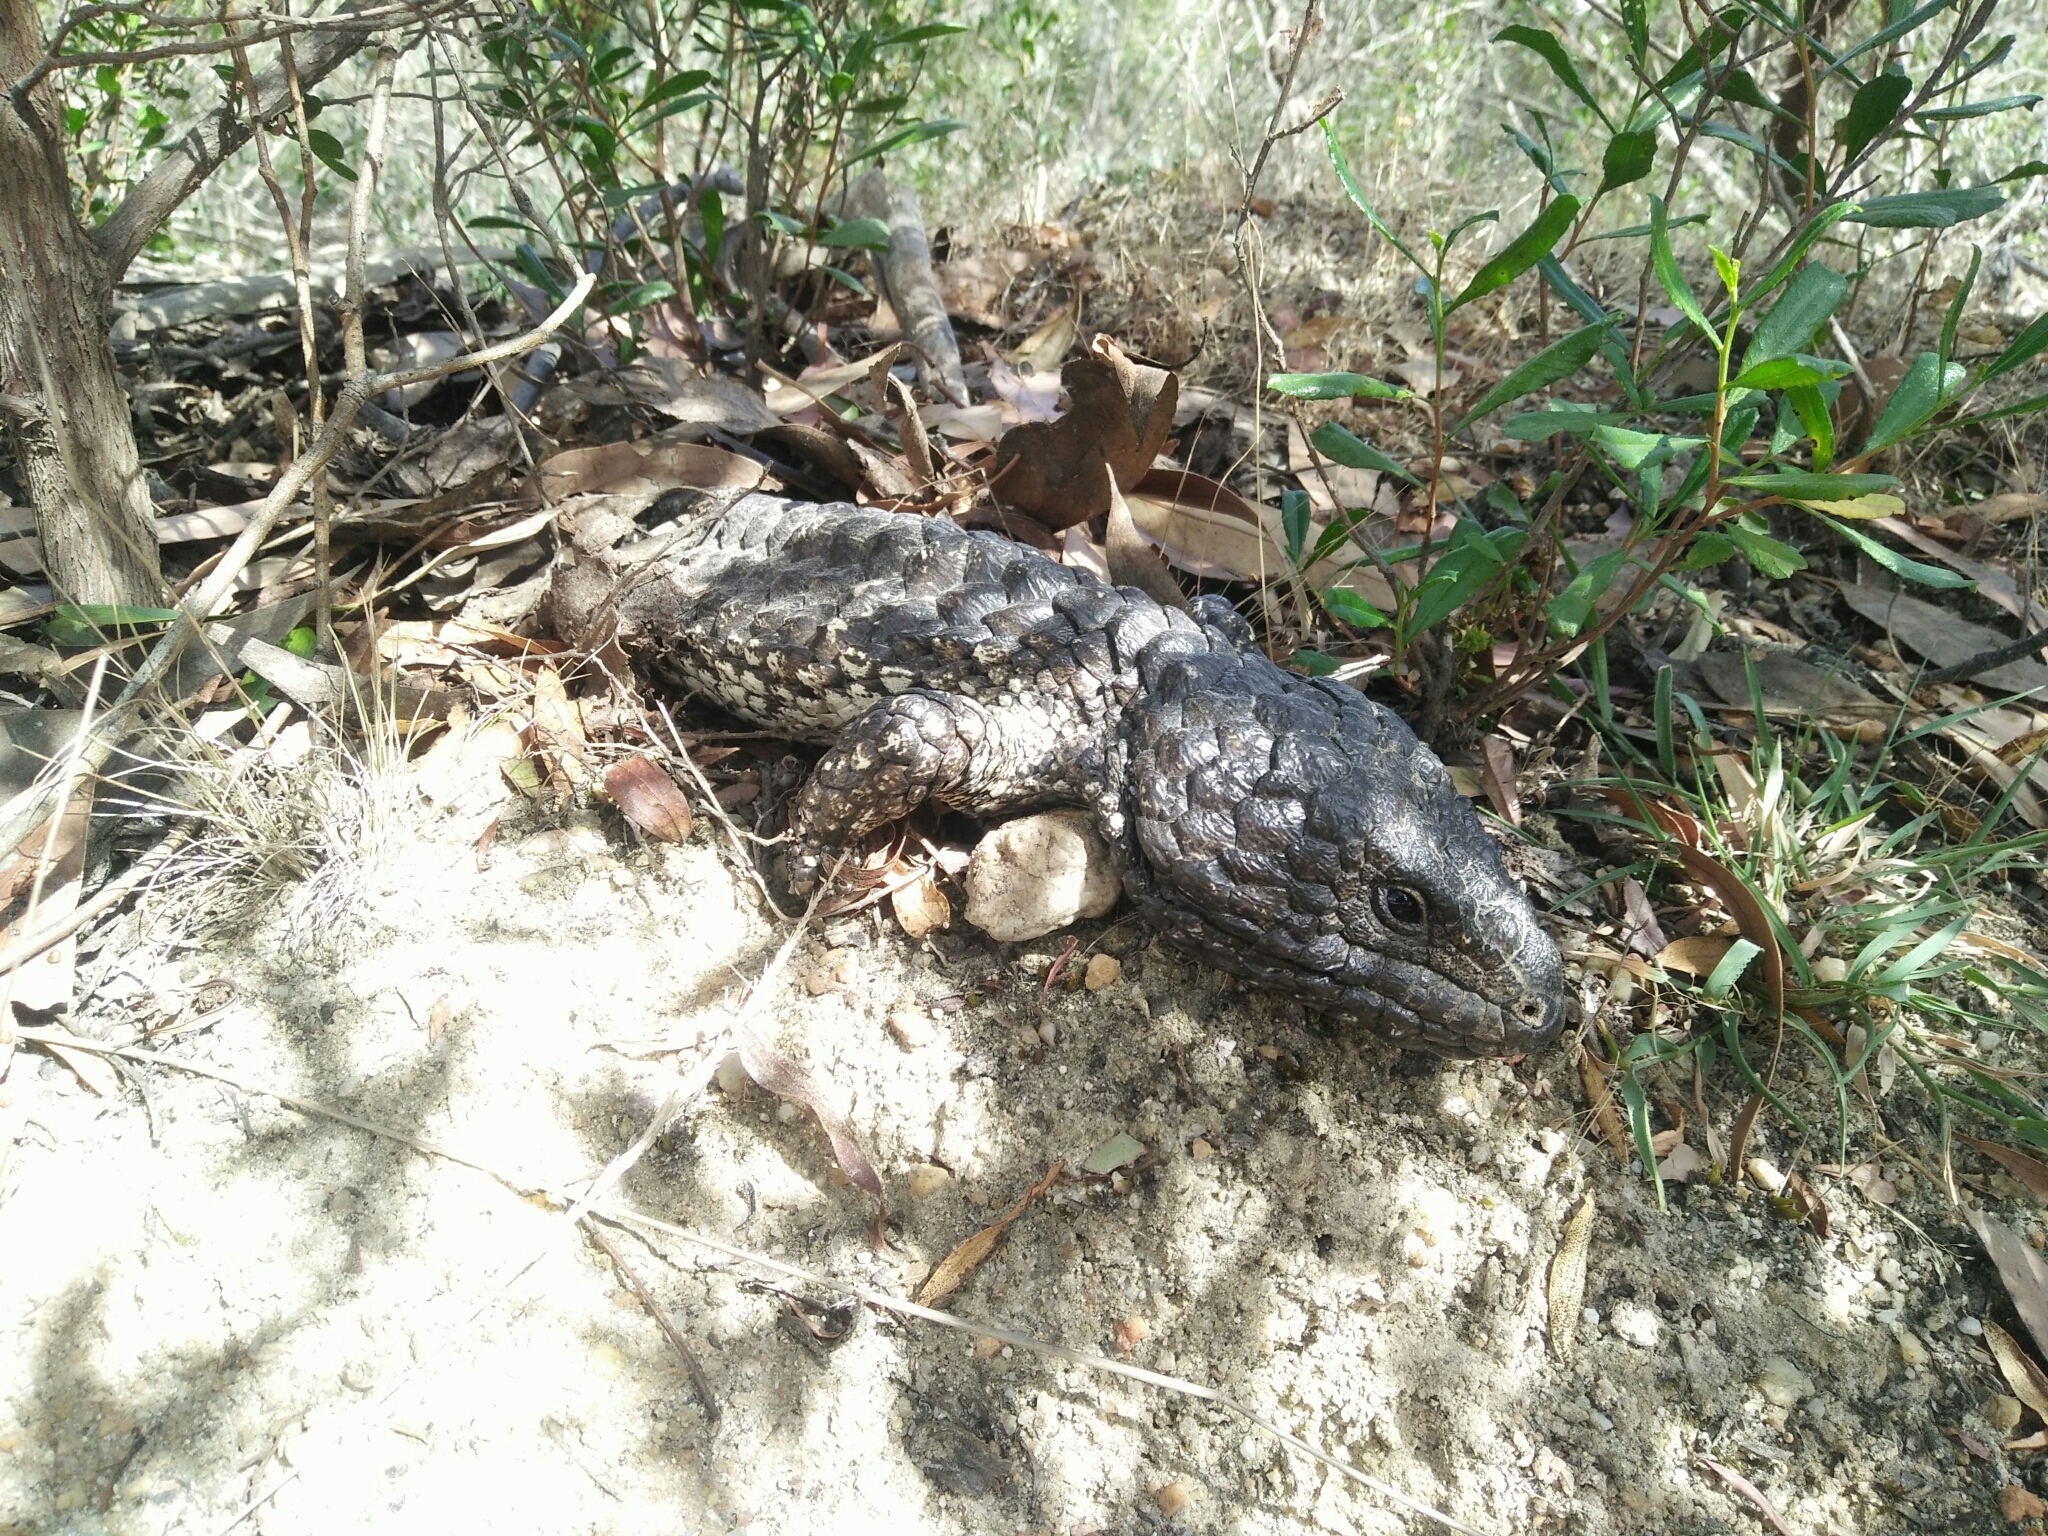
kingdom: Animalia
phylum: Chordata
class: Squamata
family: Scincidae
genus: Tiliqua
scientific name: Tiliqua rugosa
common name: Pinecone lizard
